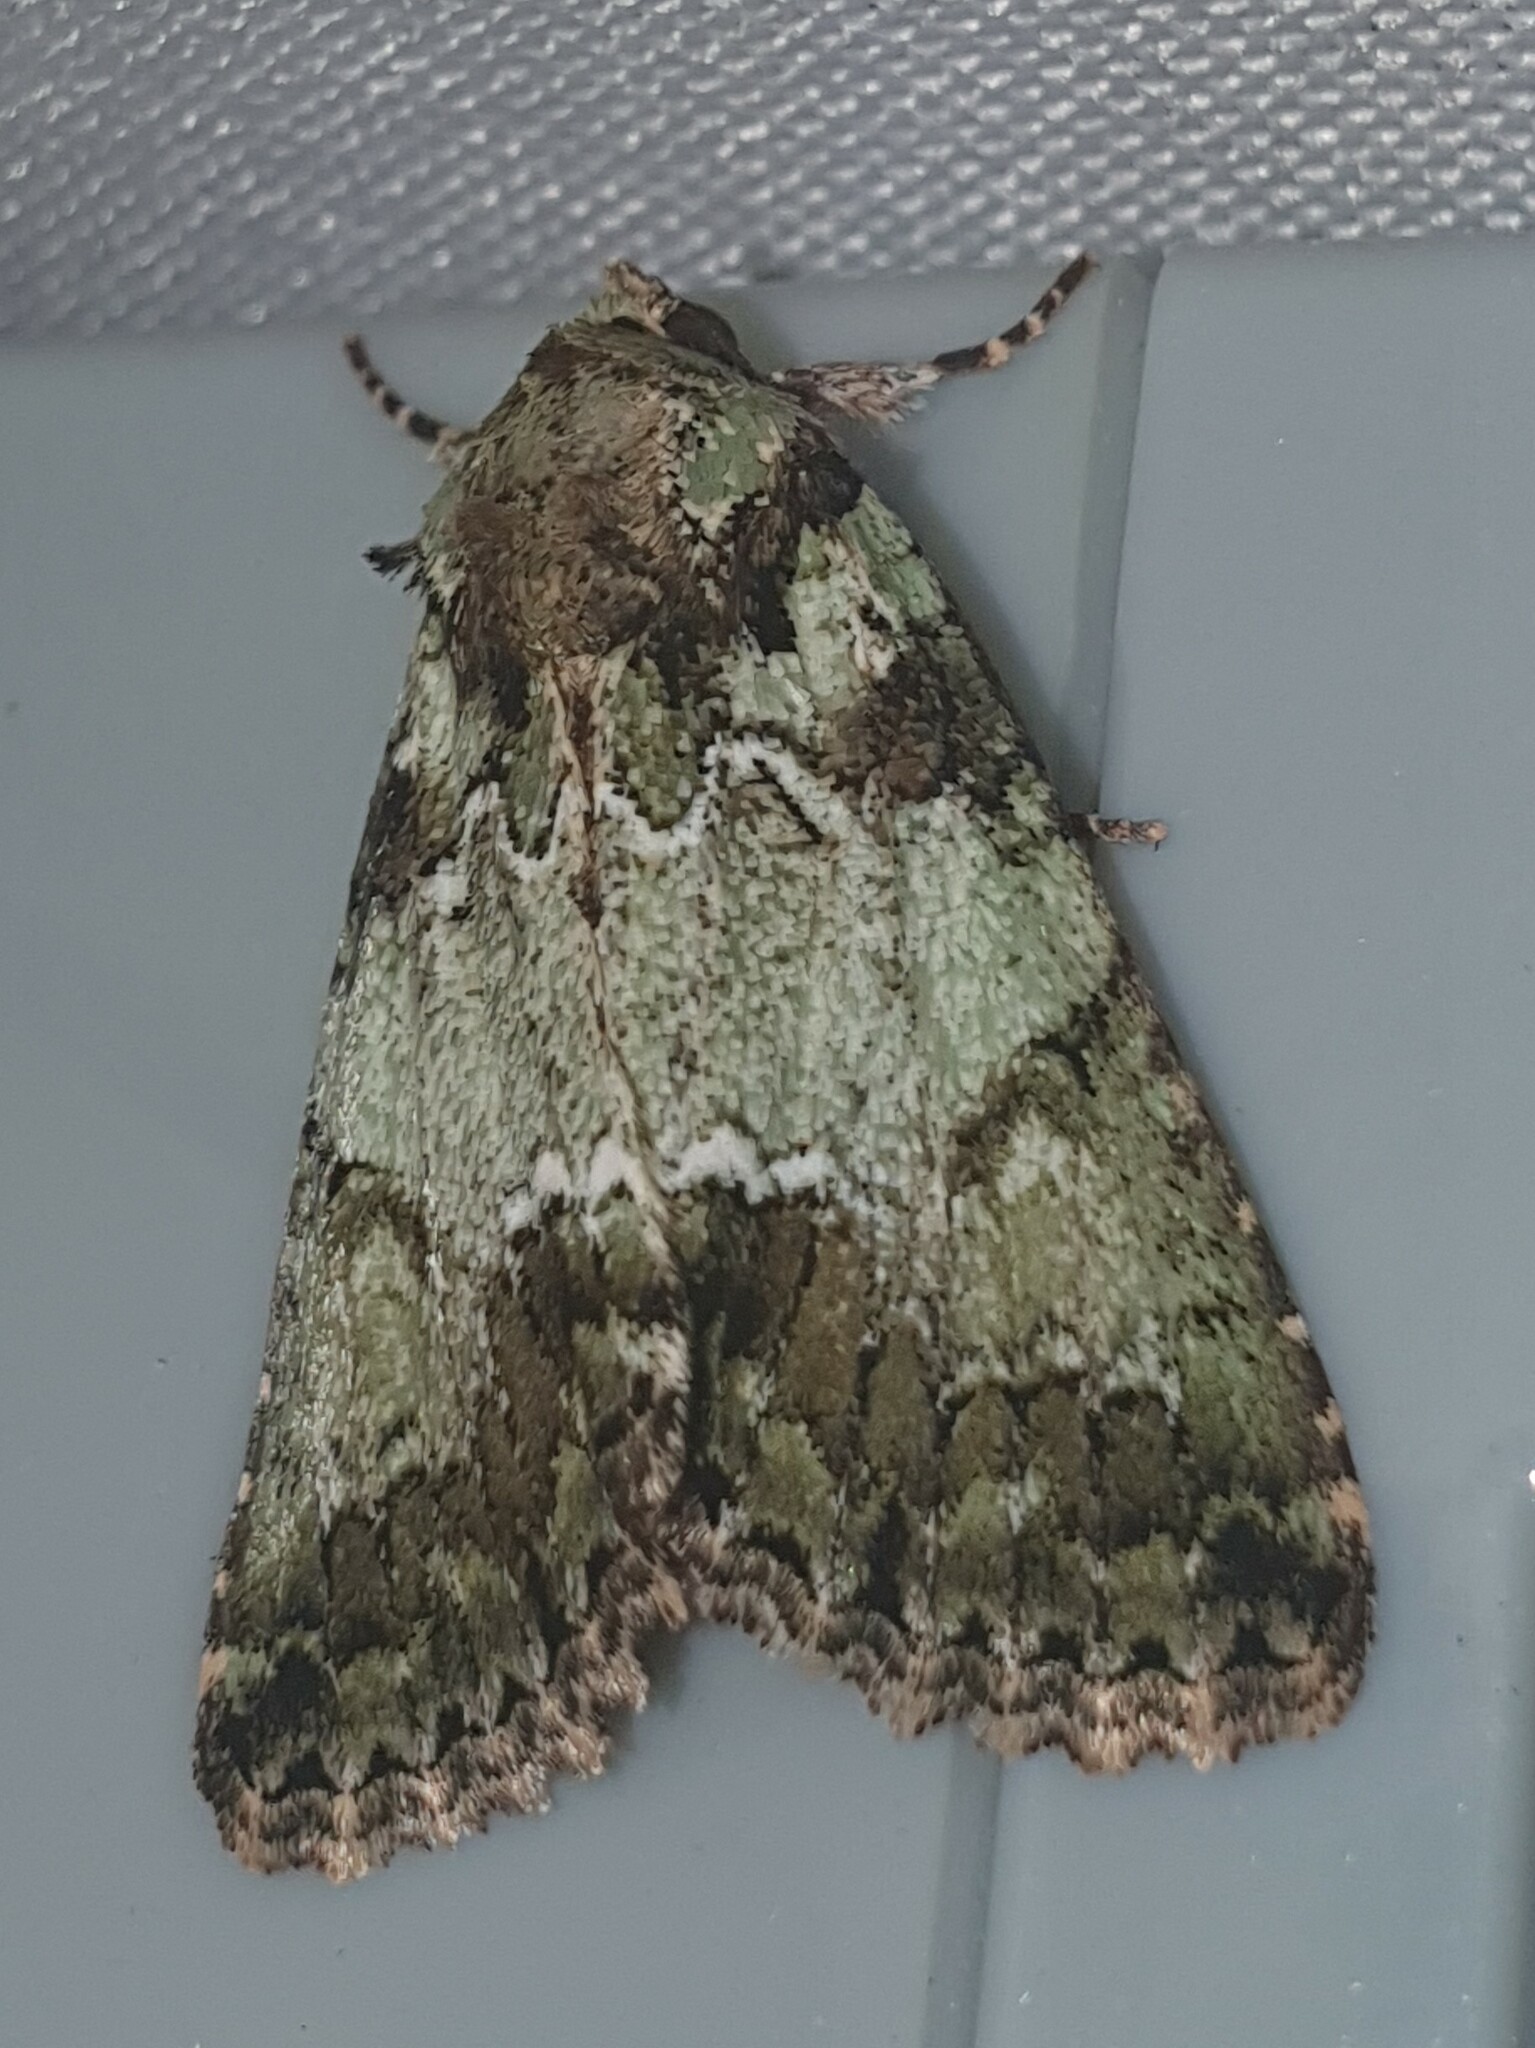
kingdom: Animalia
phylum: Arthropoda
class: Insecta
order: Lepidoptera
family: Noctuidae
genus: Polyphaenis
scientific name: Polyphaenis sericata
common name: Guernsey underwing
